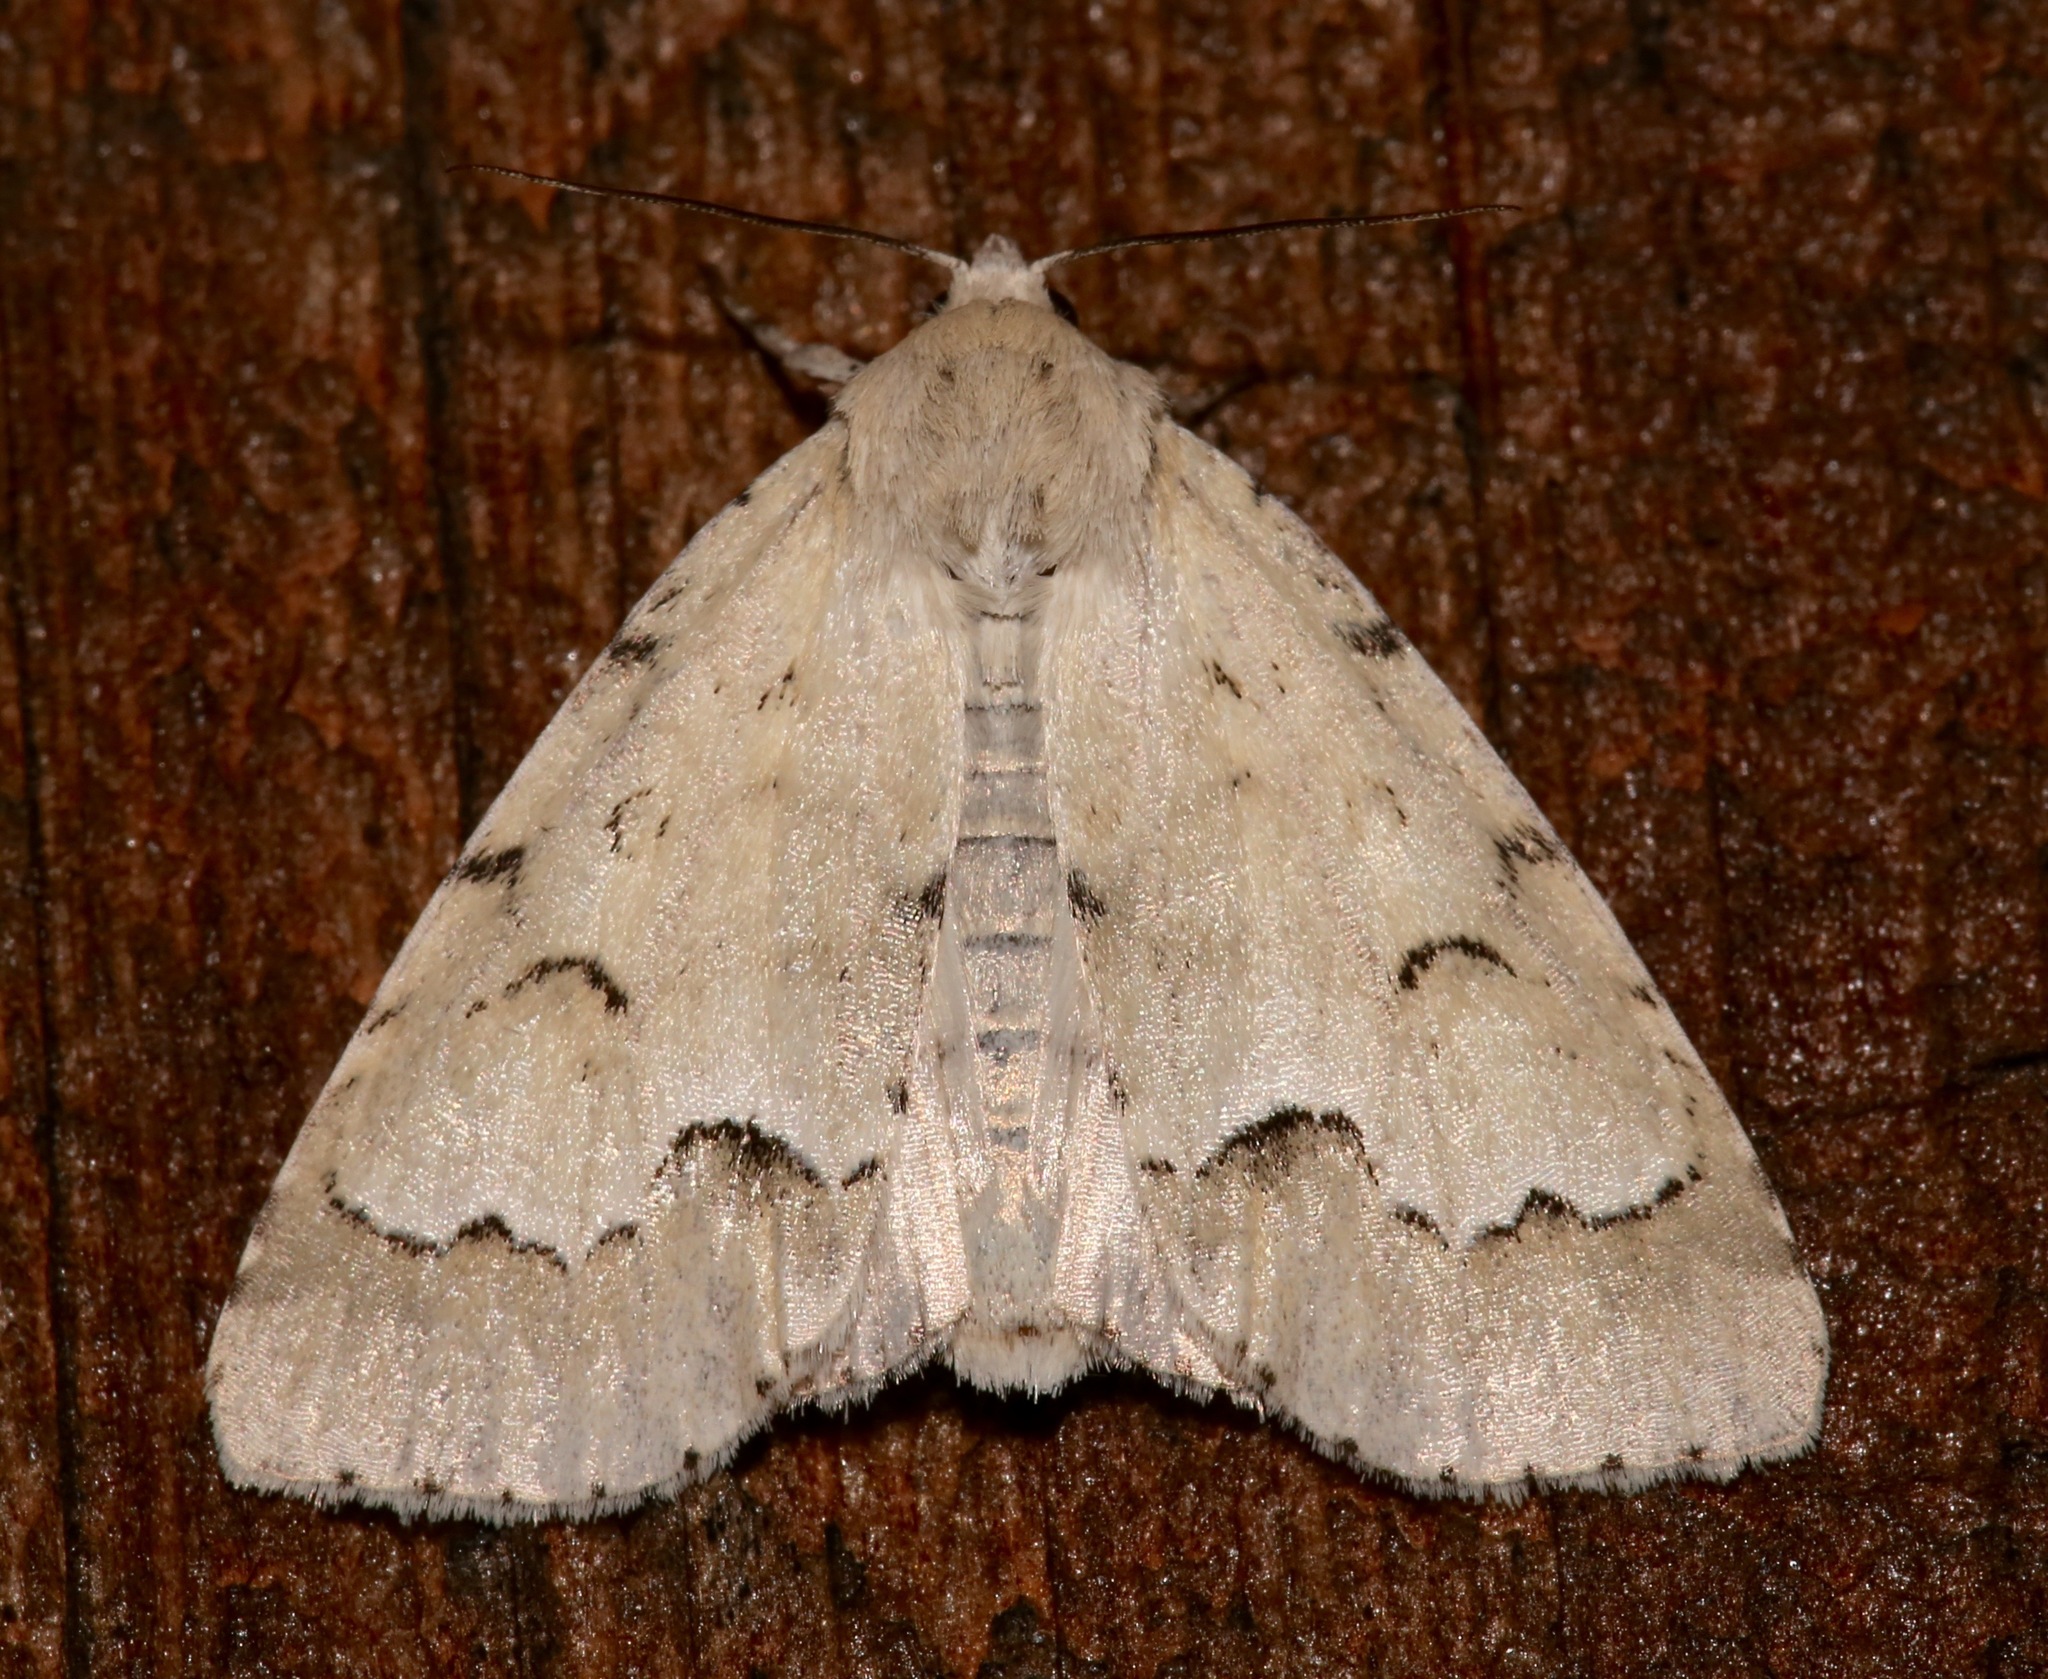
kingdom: Animalia
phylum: Arthropoda
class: Insecta
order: Lepidoptera
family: Noctuidae
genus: Acronicta
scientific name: Acronicta innotata
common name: Unmarked dagger
